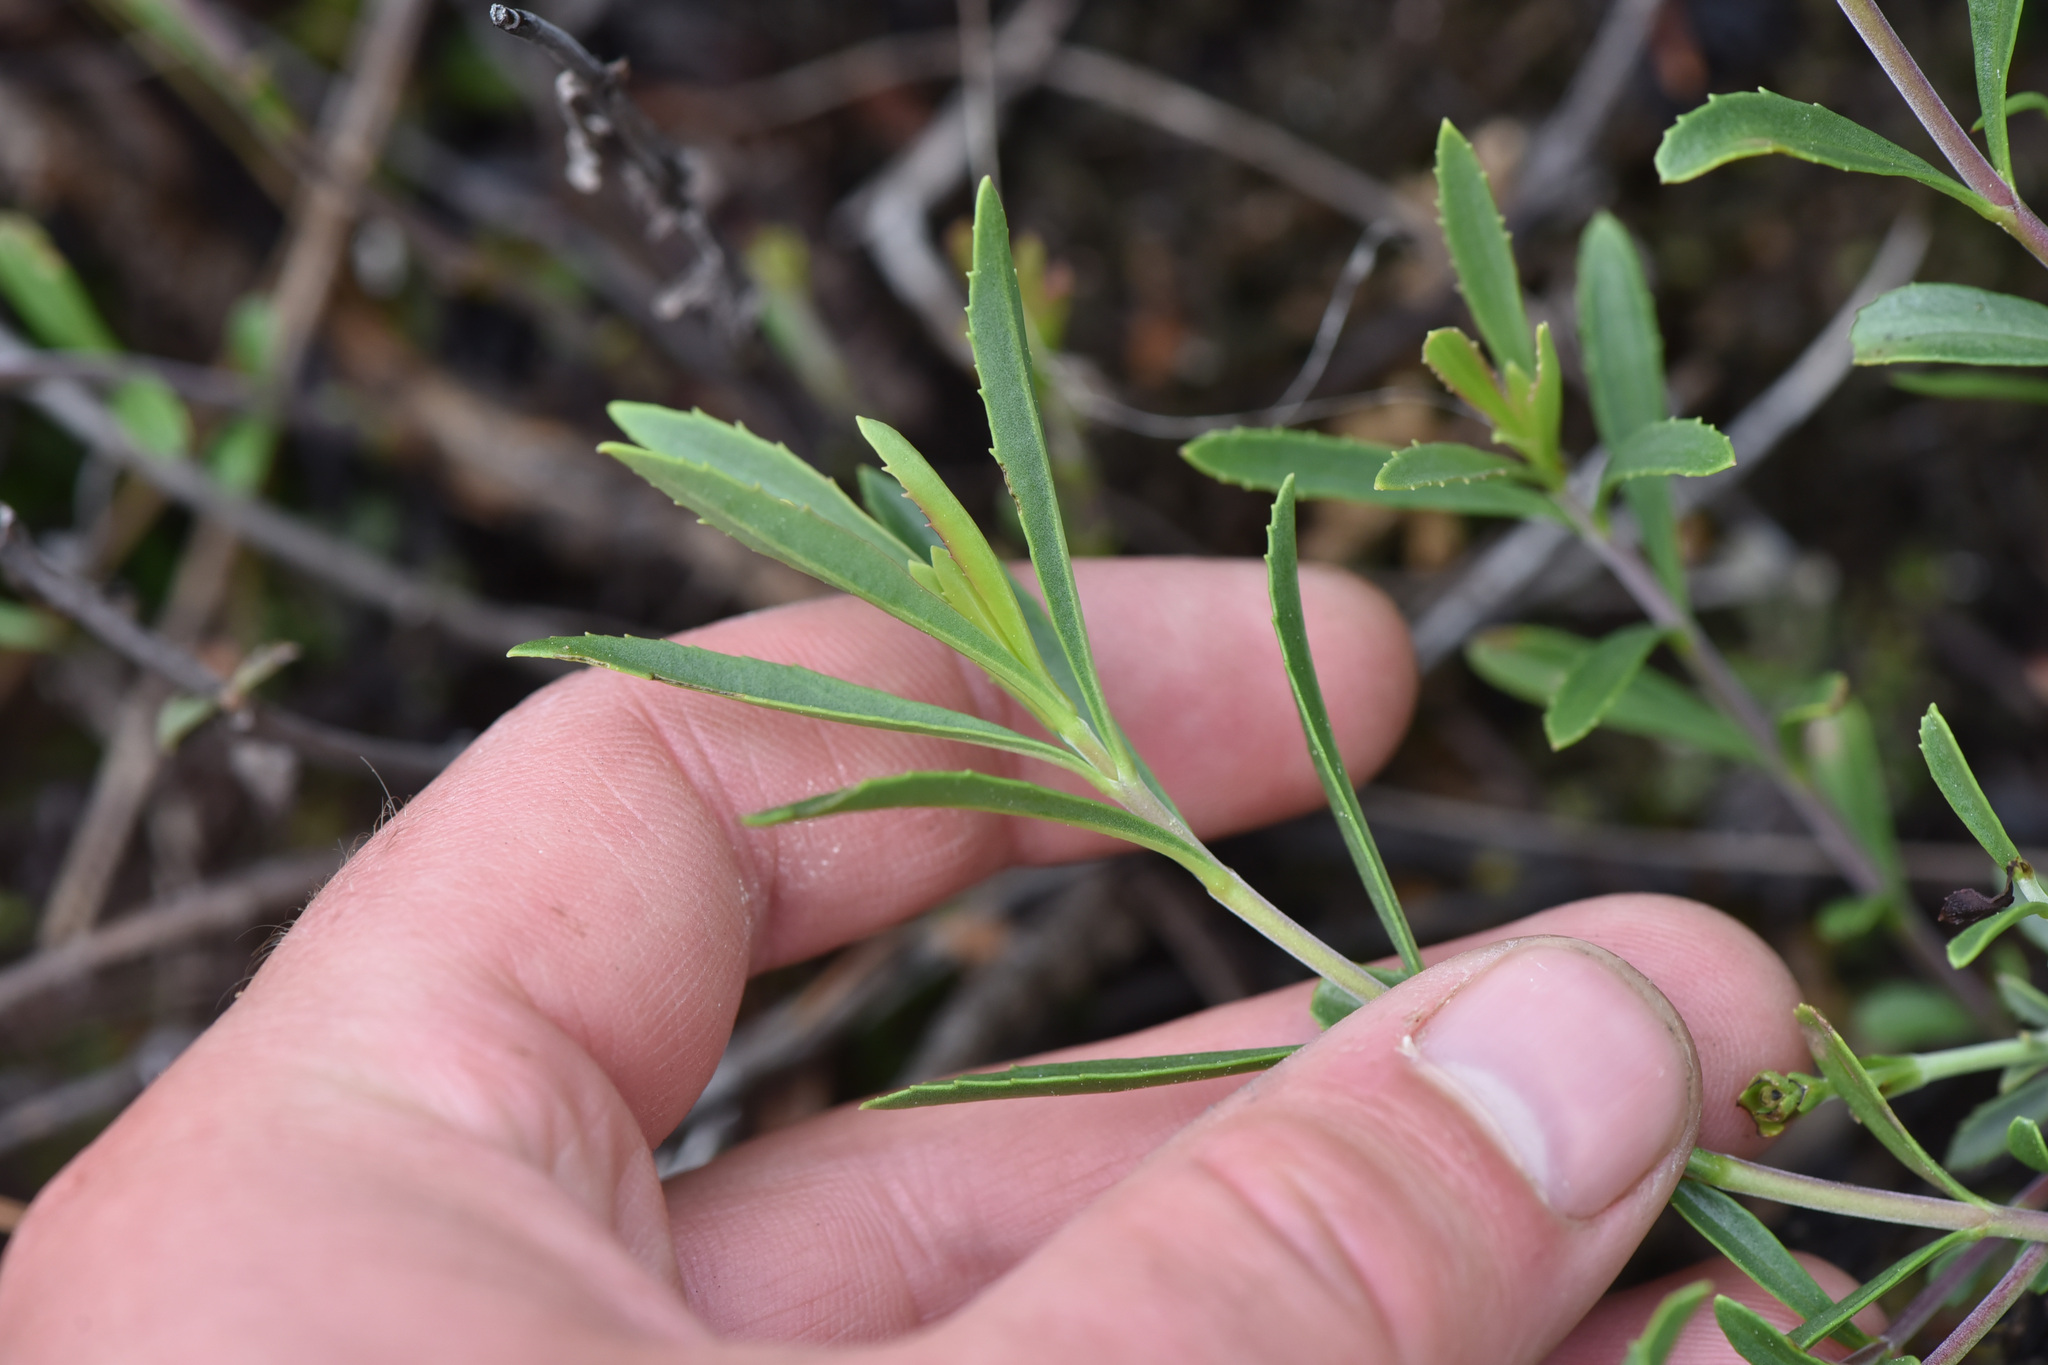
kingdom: Plantae
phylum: Tracheophyta
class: Magnoliopsida
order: Lamiales
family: Plantaginaceae
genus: Penstemon
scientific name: Penstemon fruticosus
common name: Bush penstemon
